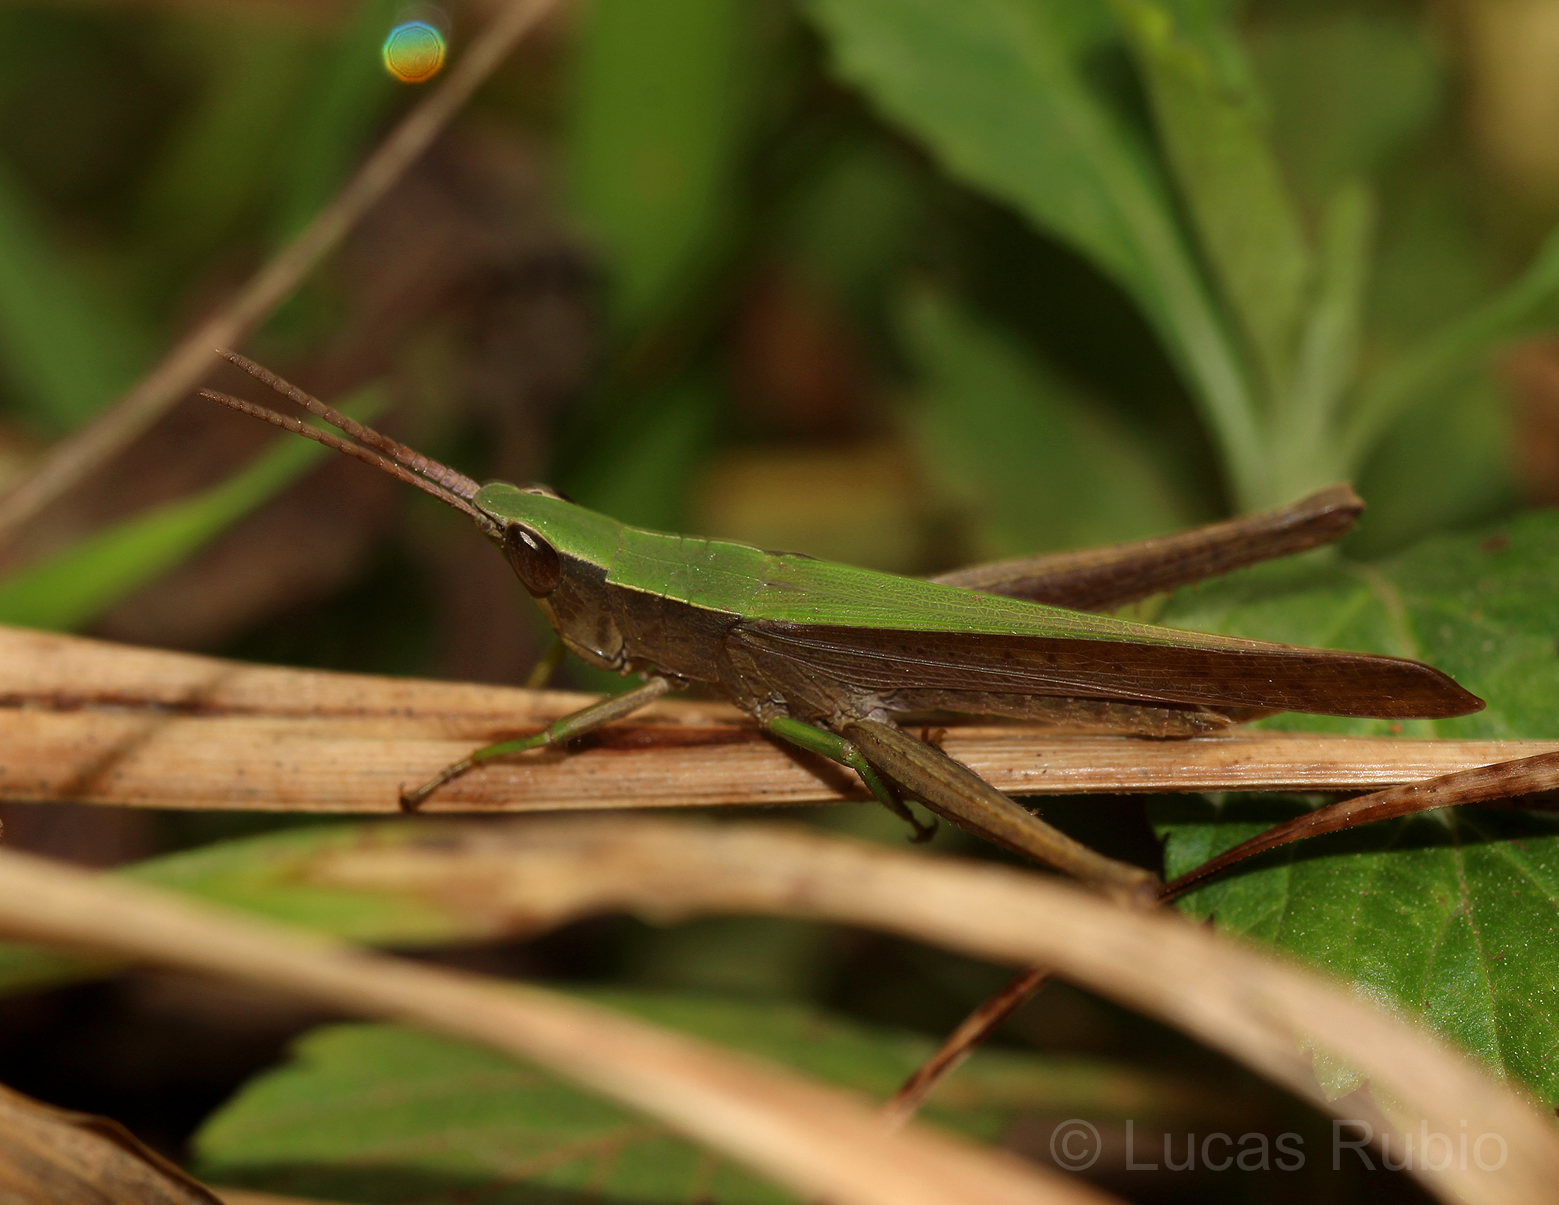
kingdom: Animalia
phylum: Arthropoda
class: Insecta
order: Orthoptera
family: Acrididae
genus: Metaleptea
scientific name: Metaleptea adspersa
